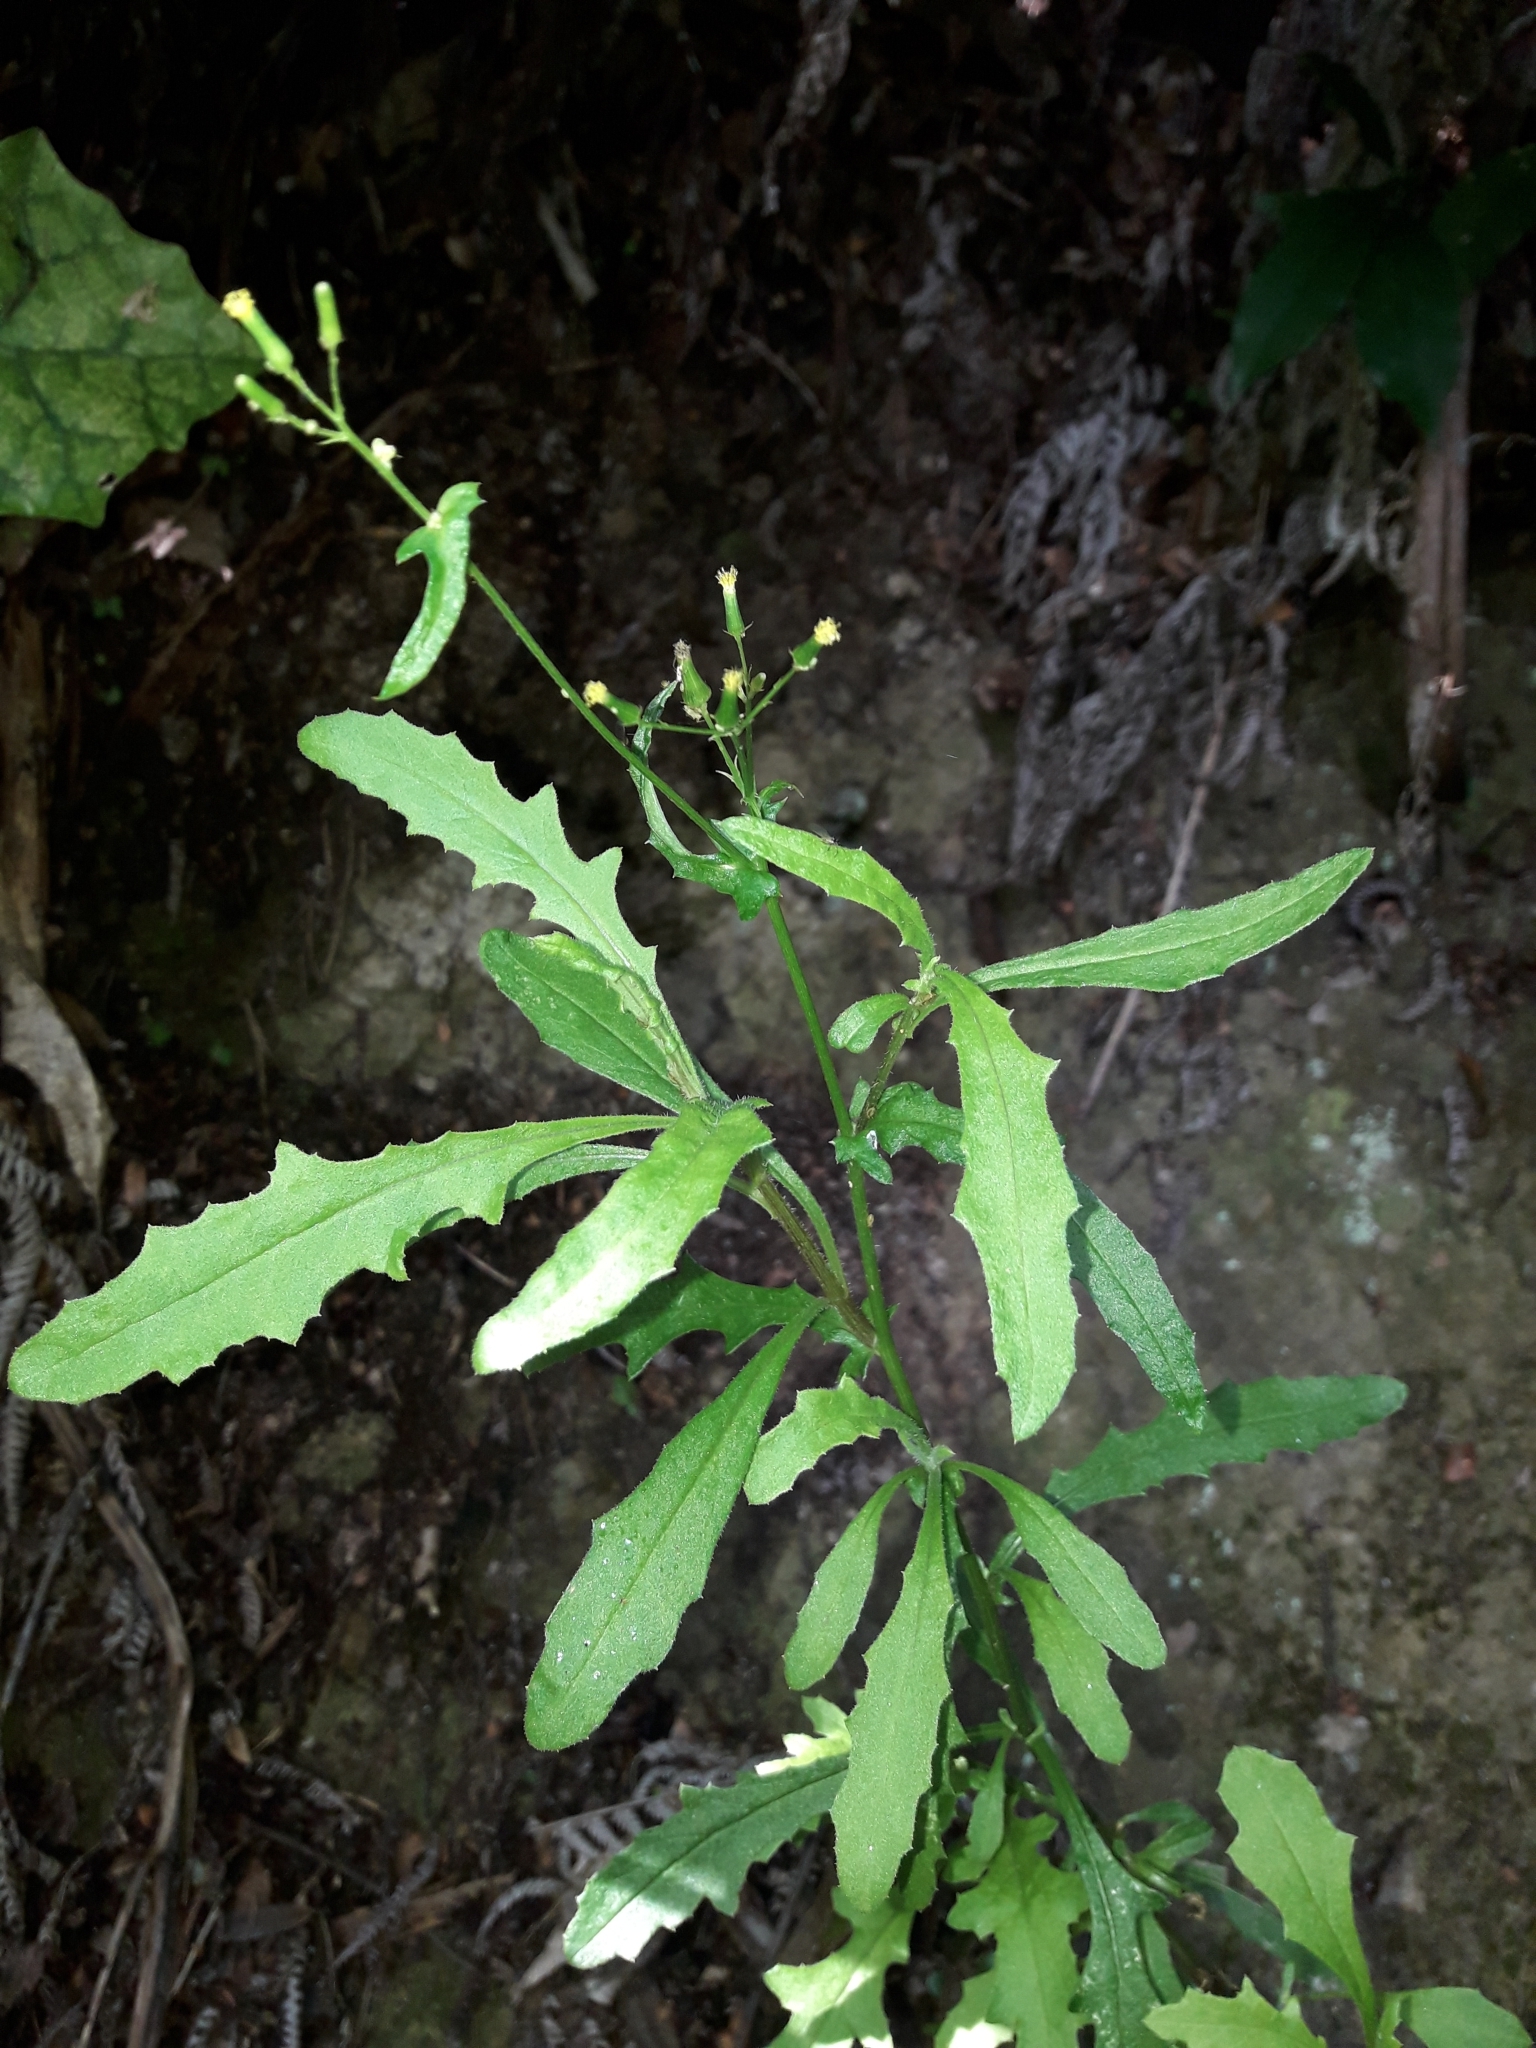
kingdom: Plantae
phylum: Tracheophyta
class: Magnoliopsida
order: Asterales
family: Asteraceae
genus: Senecio
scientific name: Senecio hispidulus
